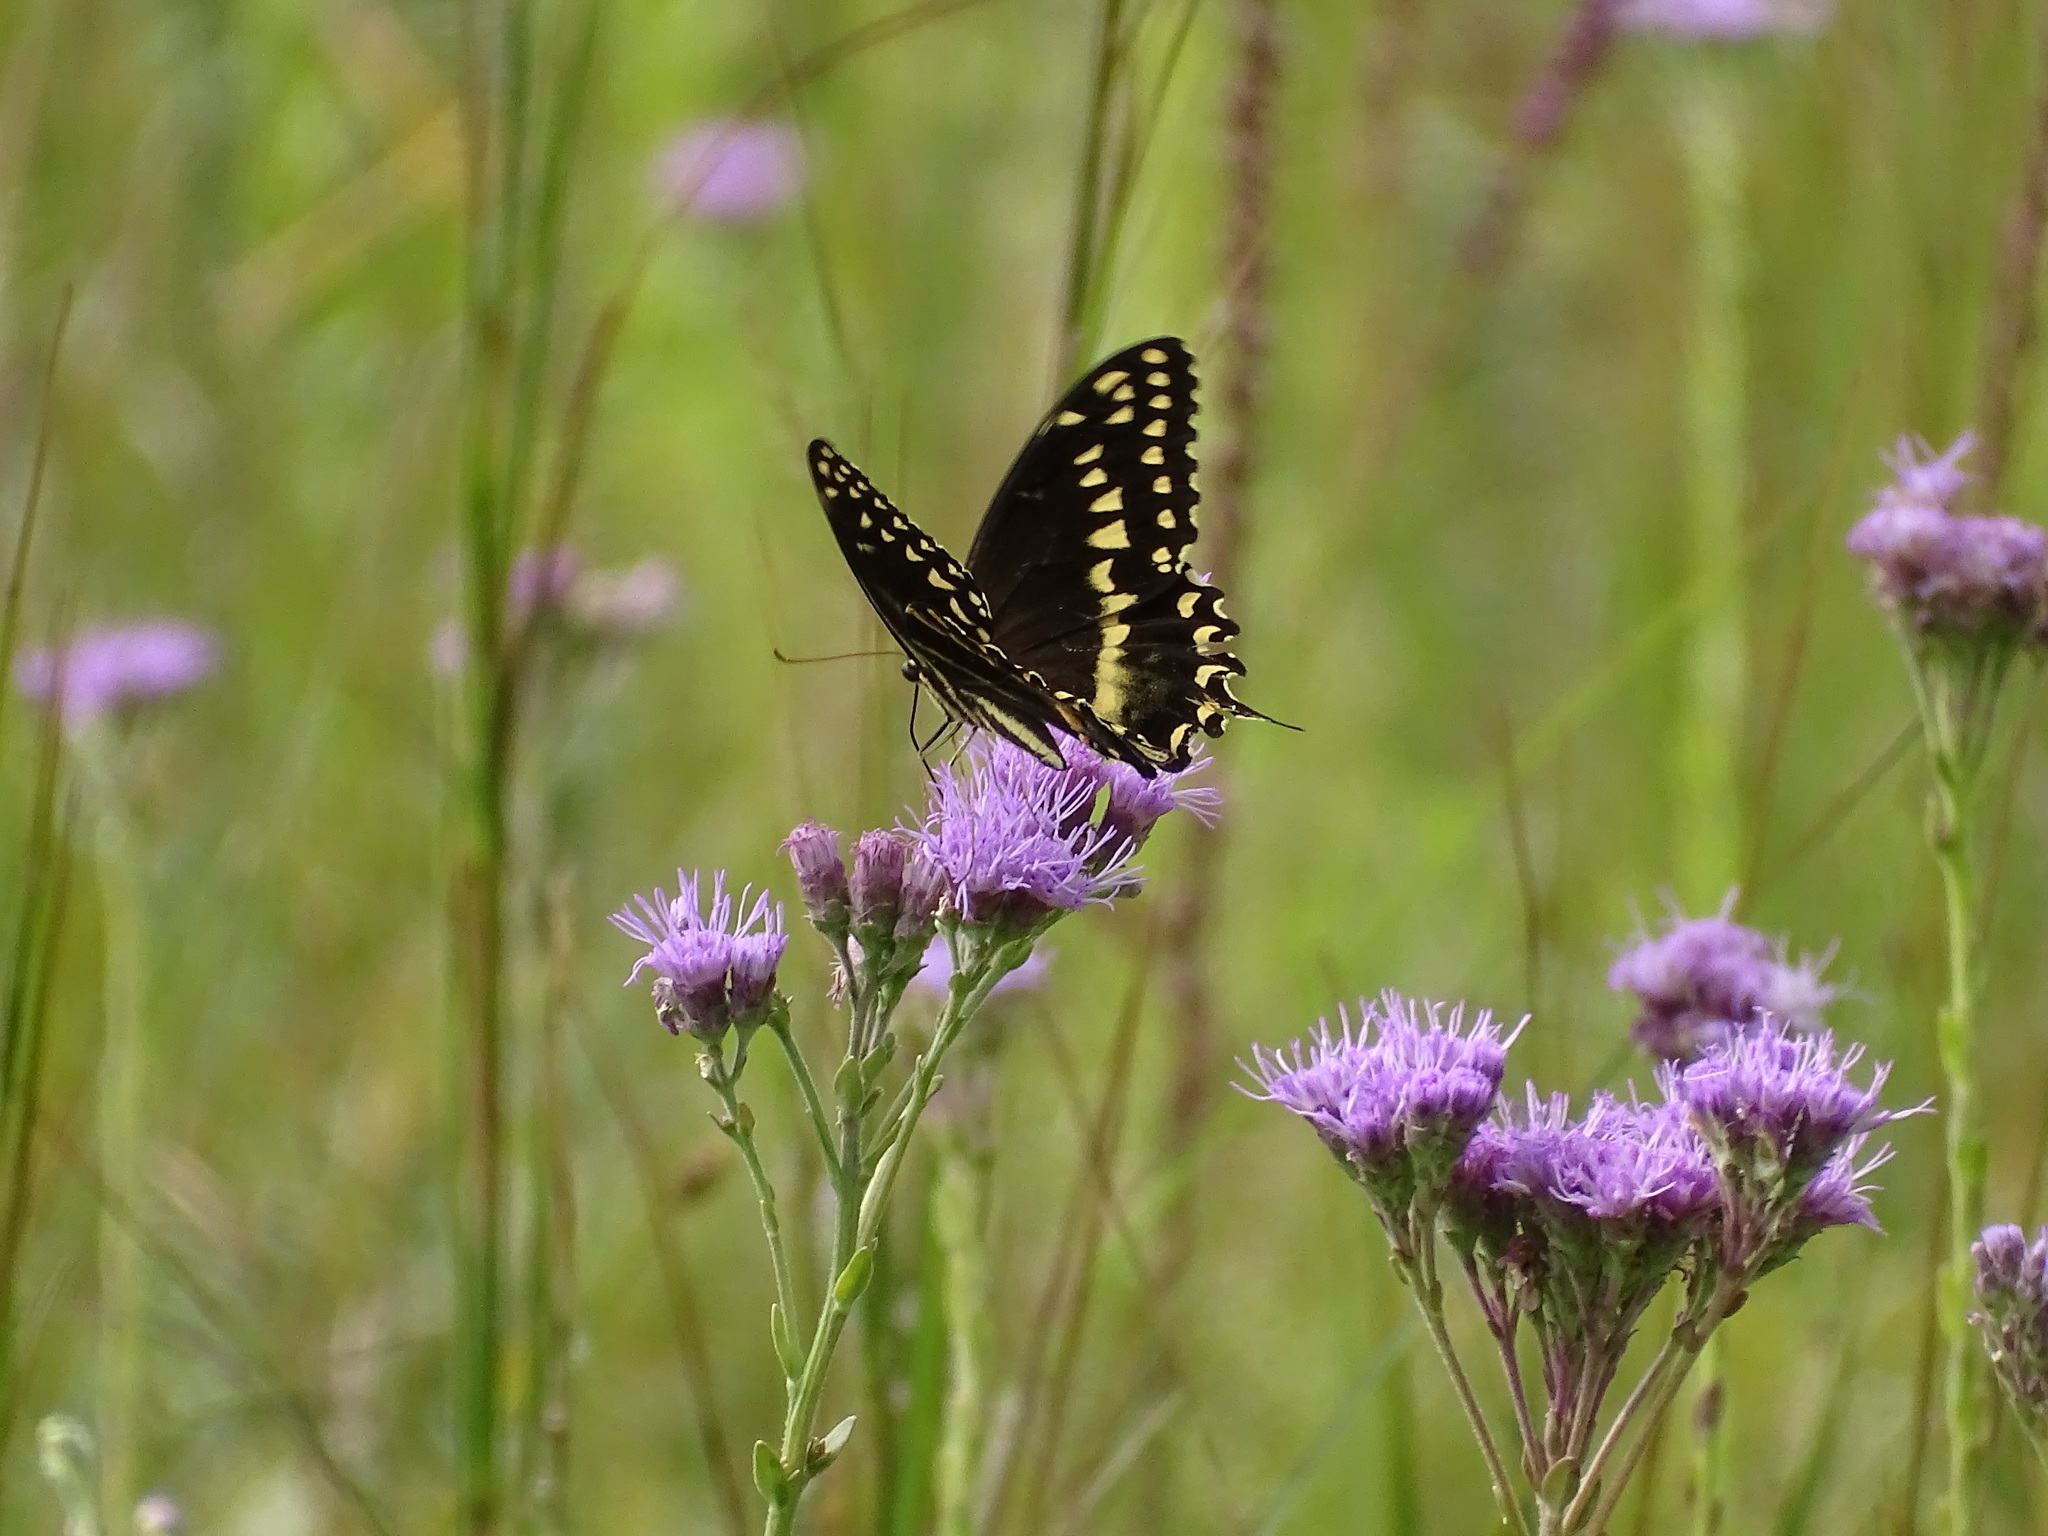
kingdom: Animalia
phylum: Arthropoda
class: Insecta
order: Lepidoptera
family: Papilionidae
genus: Papilio
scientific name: Papilio palamedes
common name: Palamedes swallowtail
